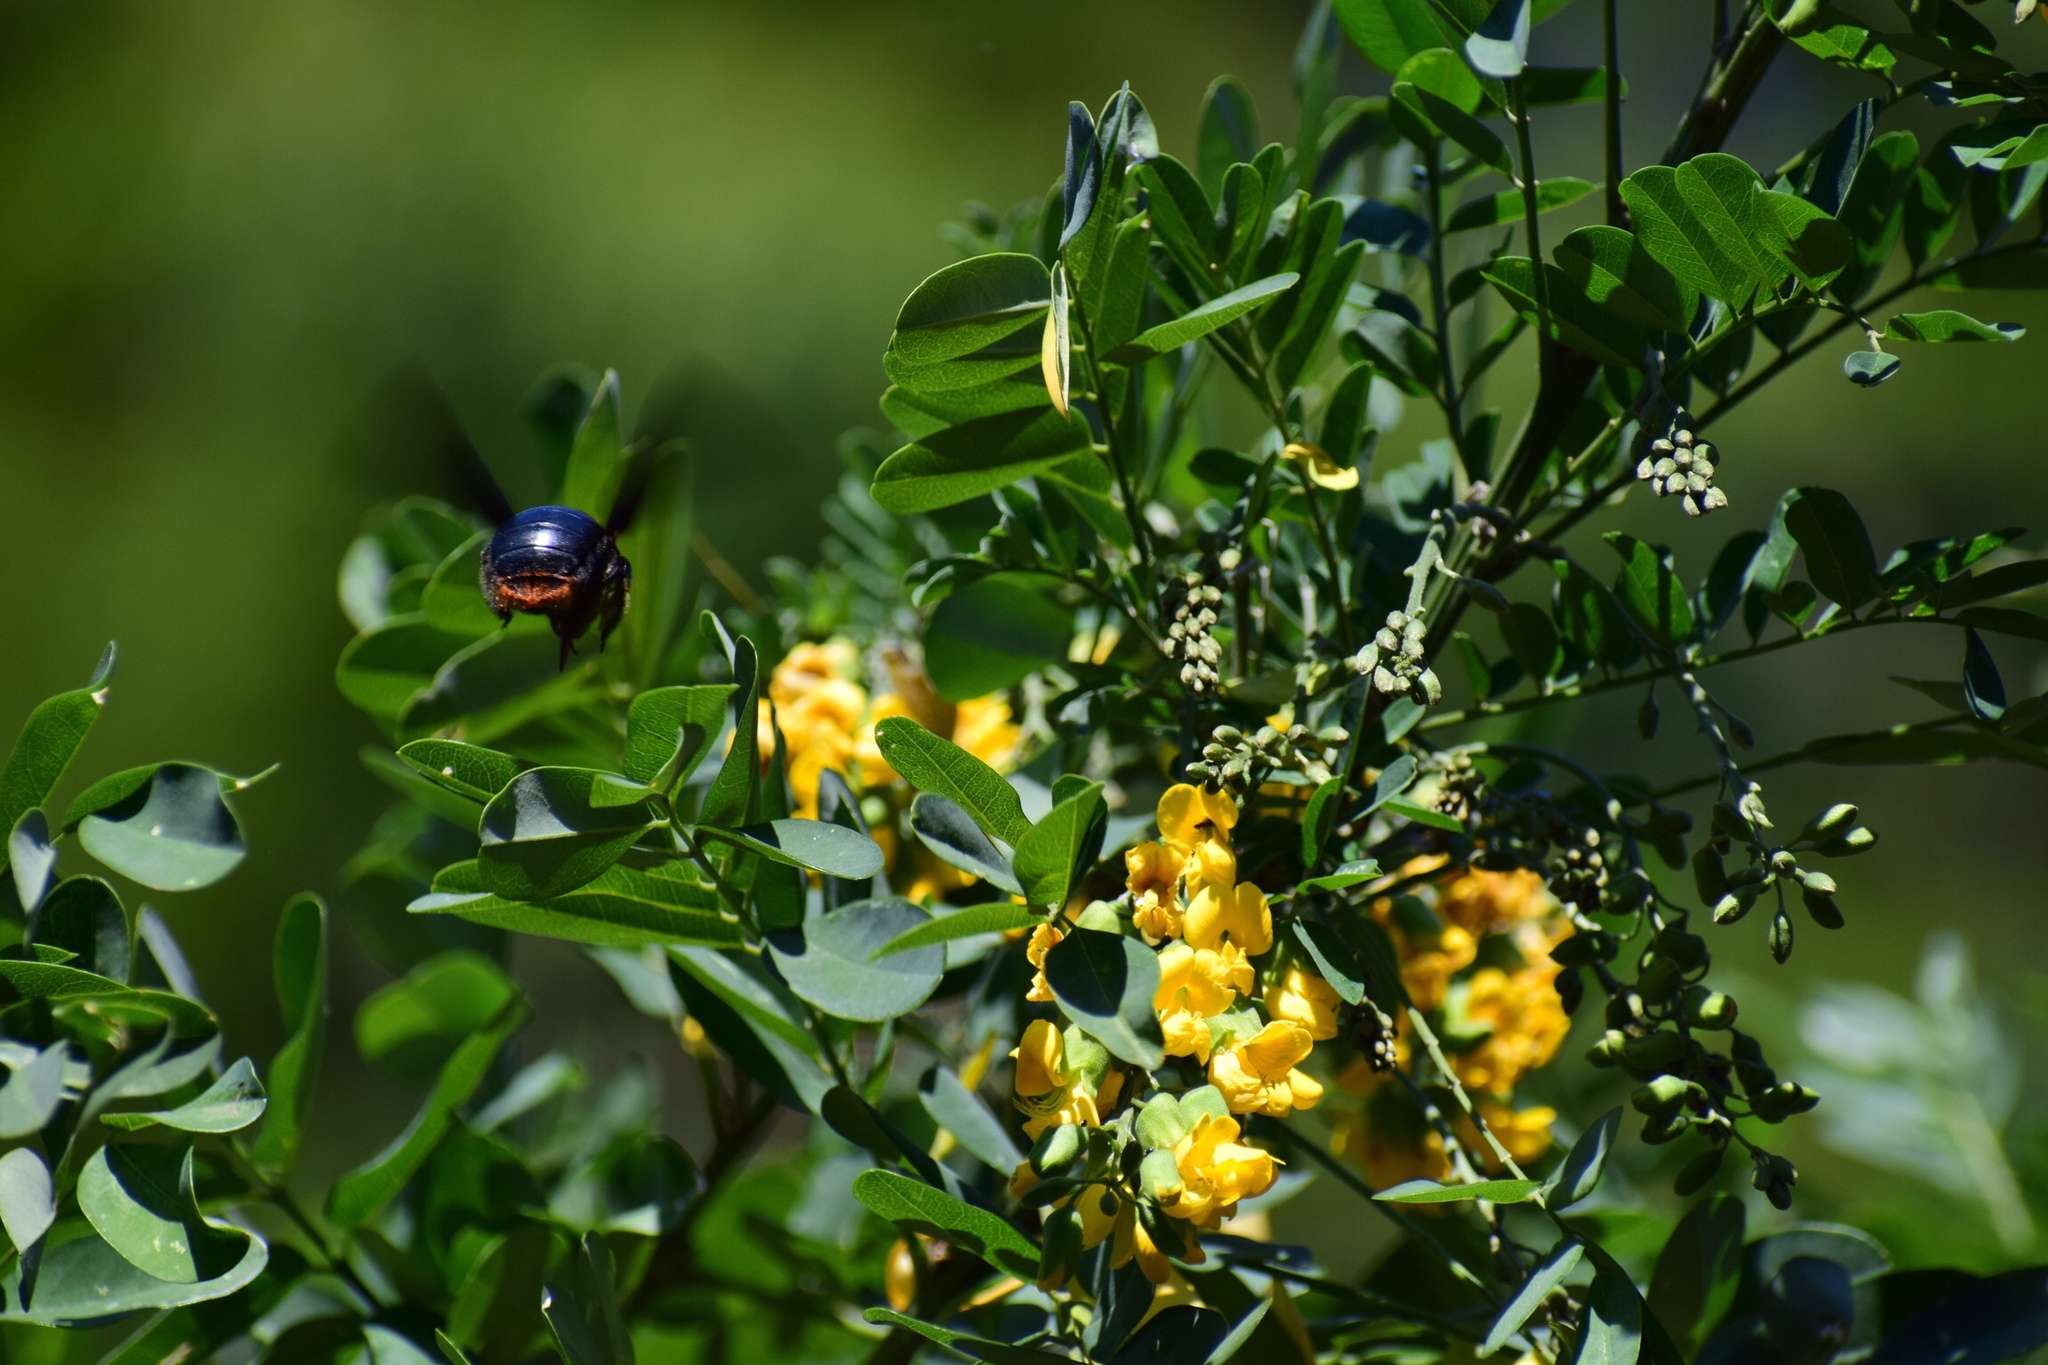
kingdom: Animalia
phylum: Arthropoda
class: Insecta
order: Hymenoptera
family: Apidae
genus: Xylocopa
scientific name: Xylocopa flavorufa
